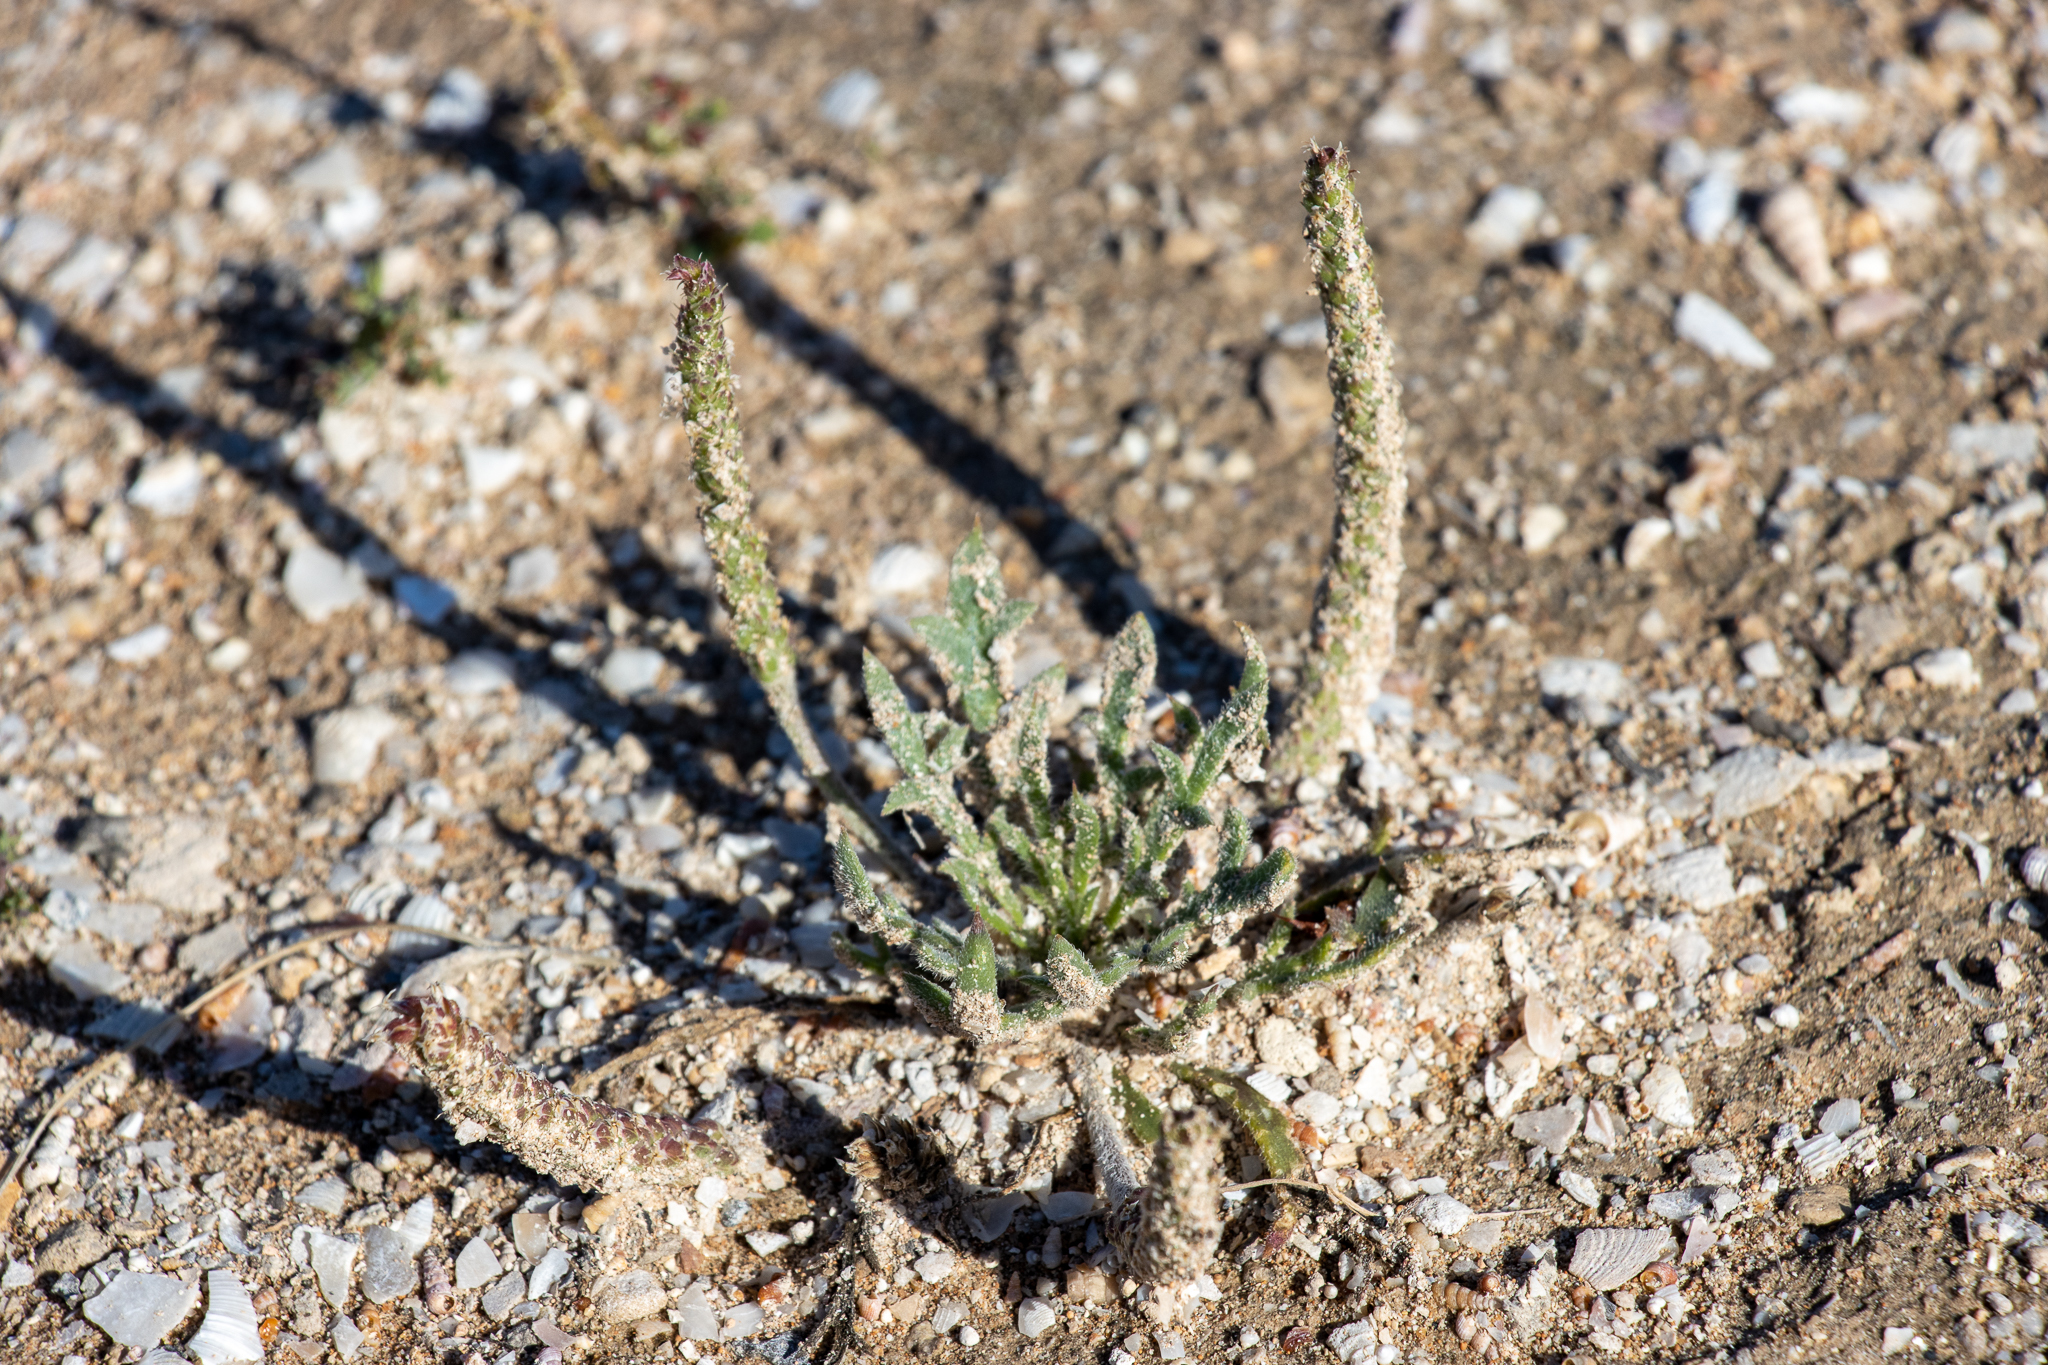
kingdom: Plantae
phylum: Tracheophyta
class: Magnoliopsida
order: Lamiales
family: Plantaginaceae
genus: Plantago
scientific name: Plantago coronopus
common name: Buck's-horn plantain
